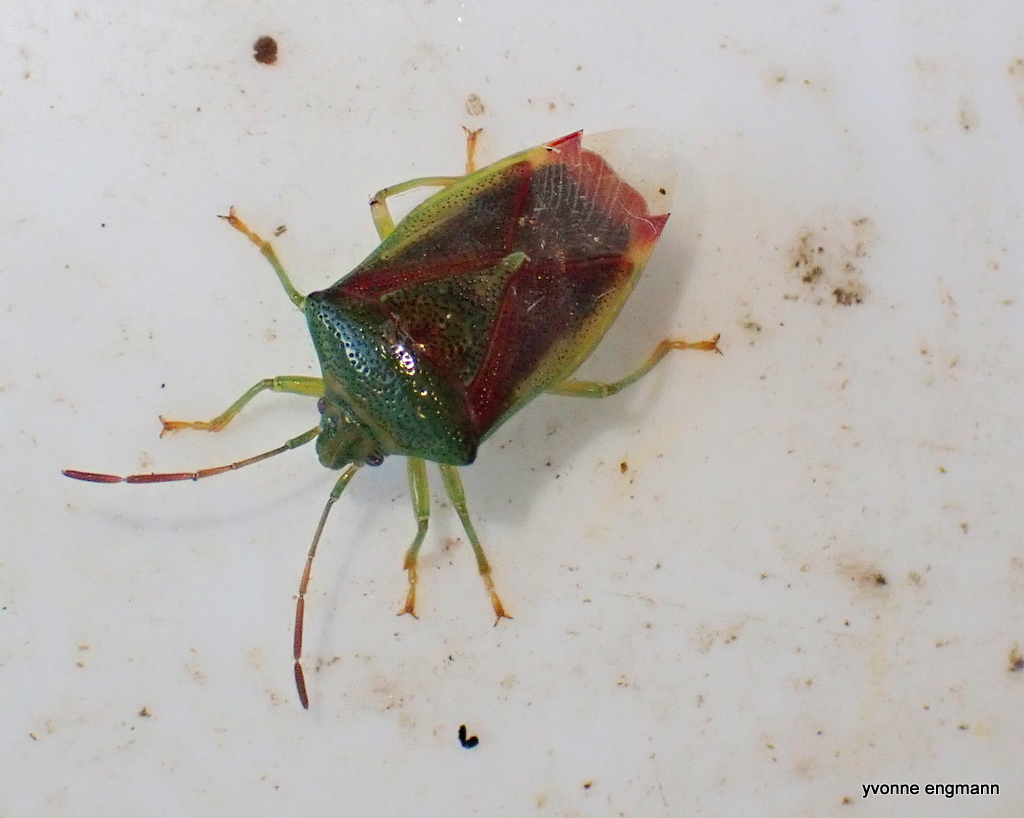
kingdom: Animalia
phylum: Arthropoda
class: Insecta
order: Hemiptera
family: Acanthosomatidae
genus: Elasmostethus
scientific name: Elasmostethus interstinctus
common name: Birch shieldbug
